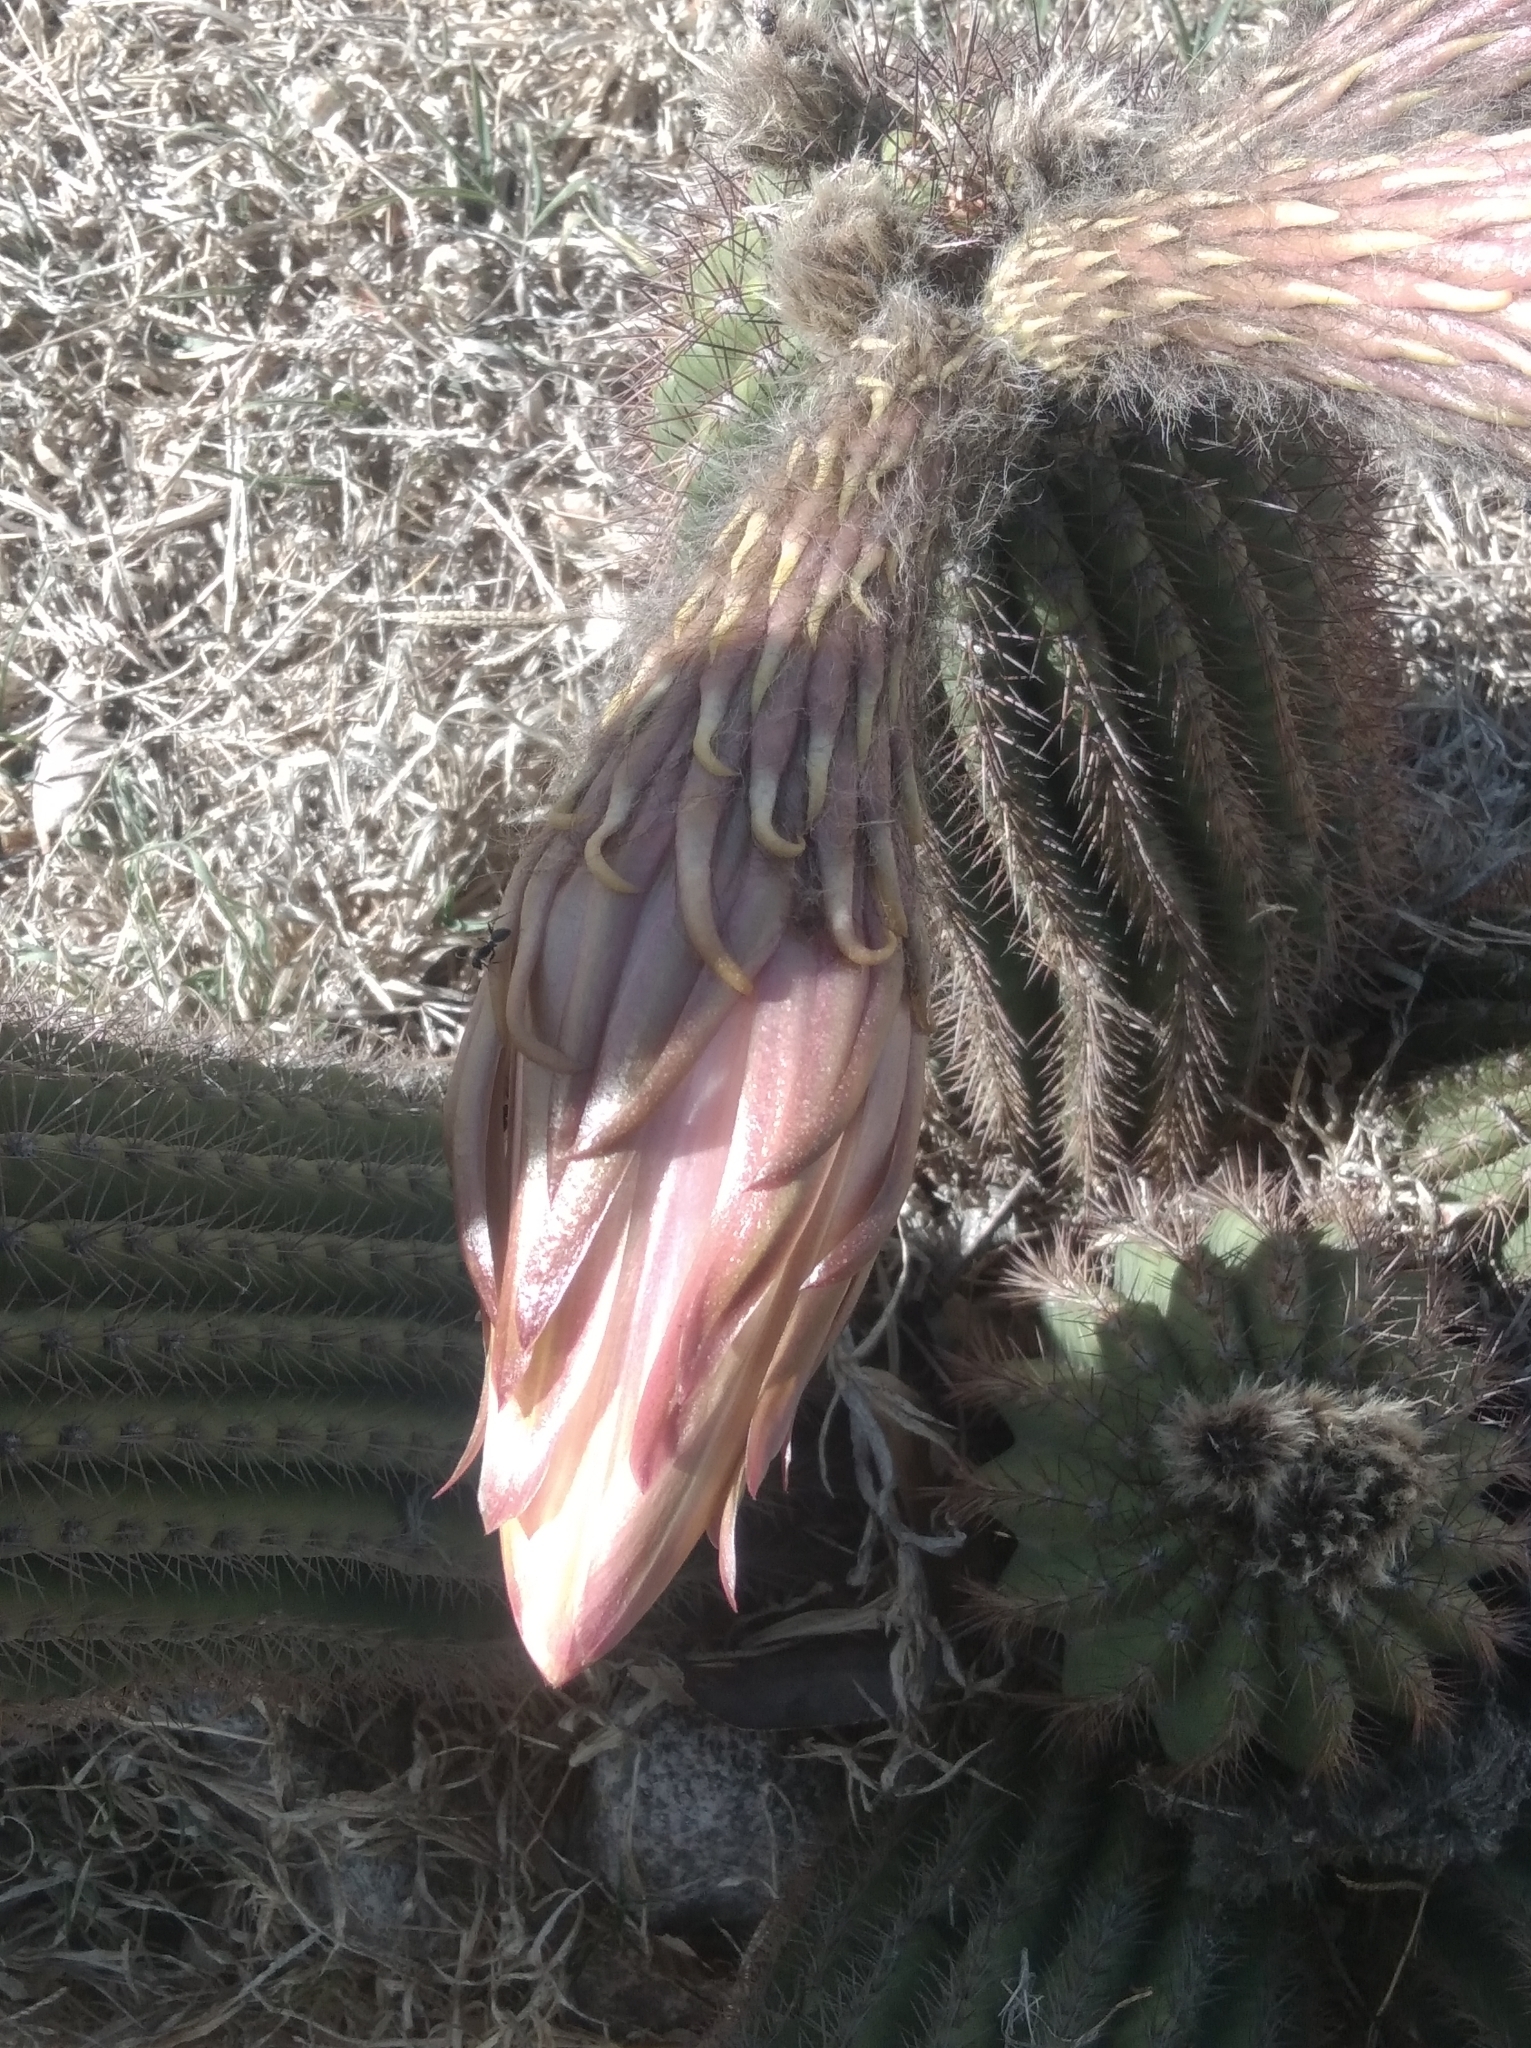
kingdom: Plantae
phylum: Tracheophyta
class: Magnoliopsida
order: Caryophyllales
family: Cactaceae
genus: Soehrensia
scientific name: Soehrensia schickendantzii
